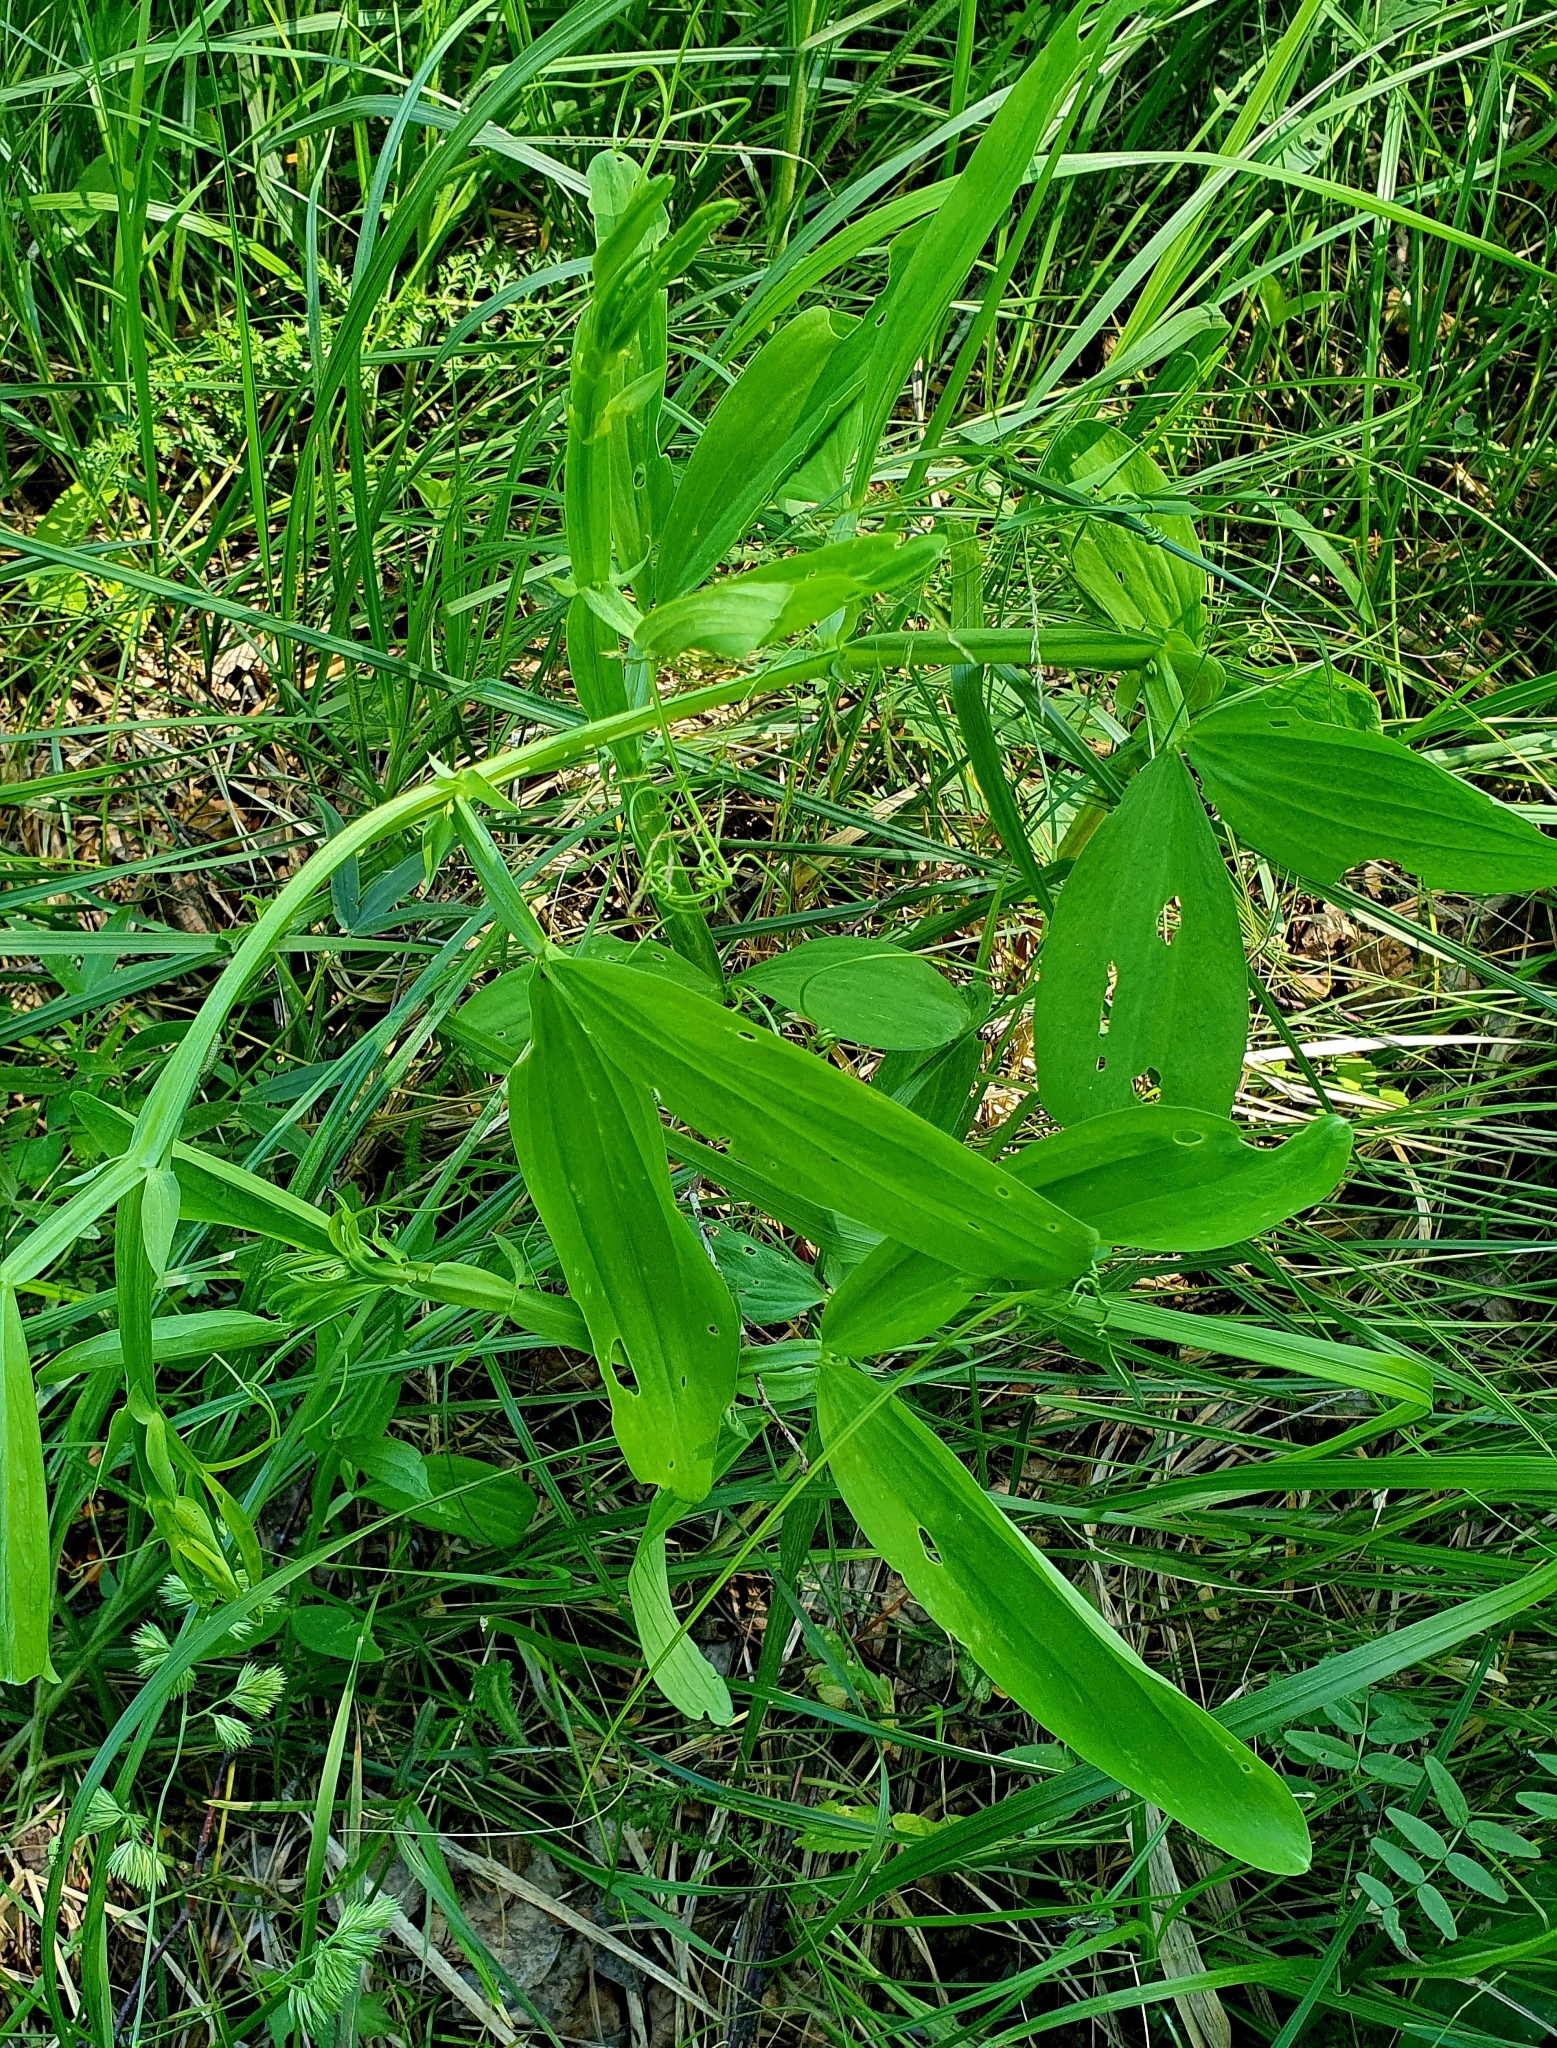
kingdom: Plantae
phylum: Tracheophyta
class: Magnoliopsida
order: Fabales
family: Fabaceae
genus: Lathyrus
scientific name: Lathyrus sylvestris
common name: Flat pea
